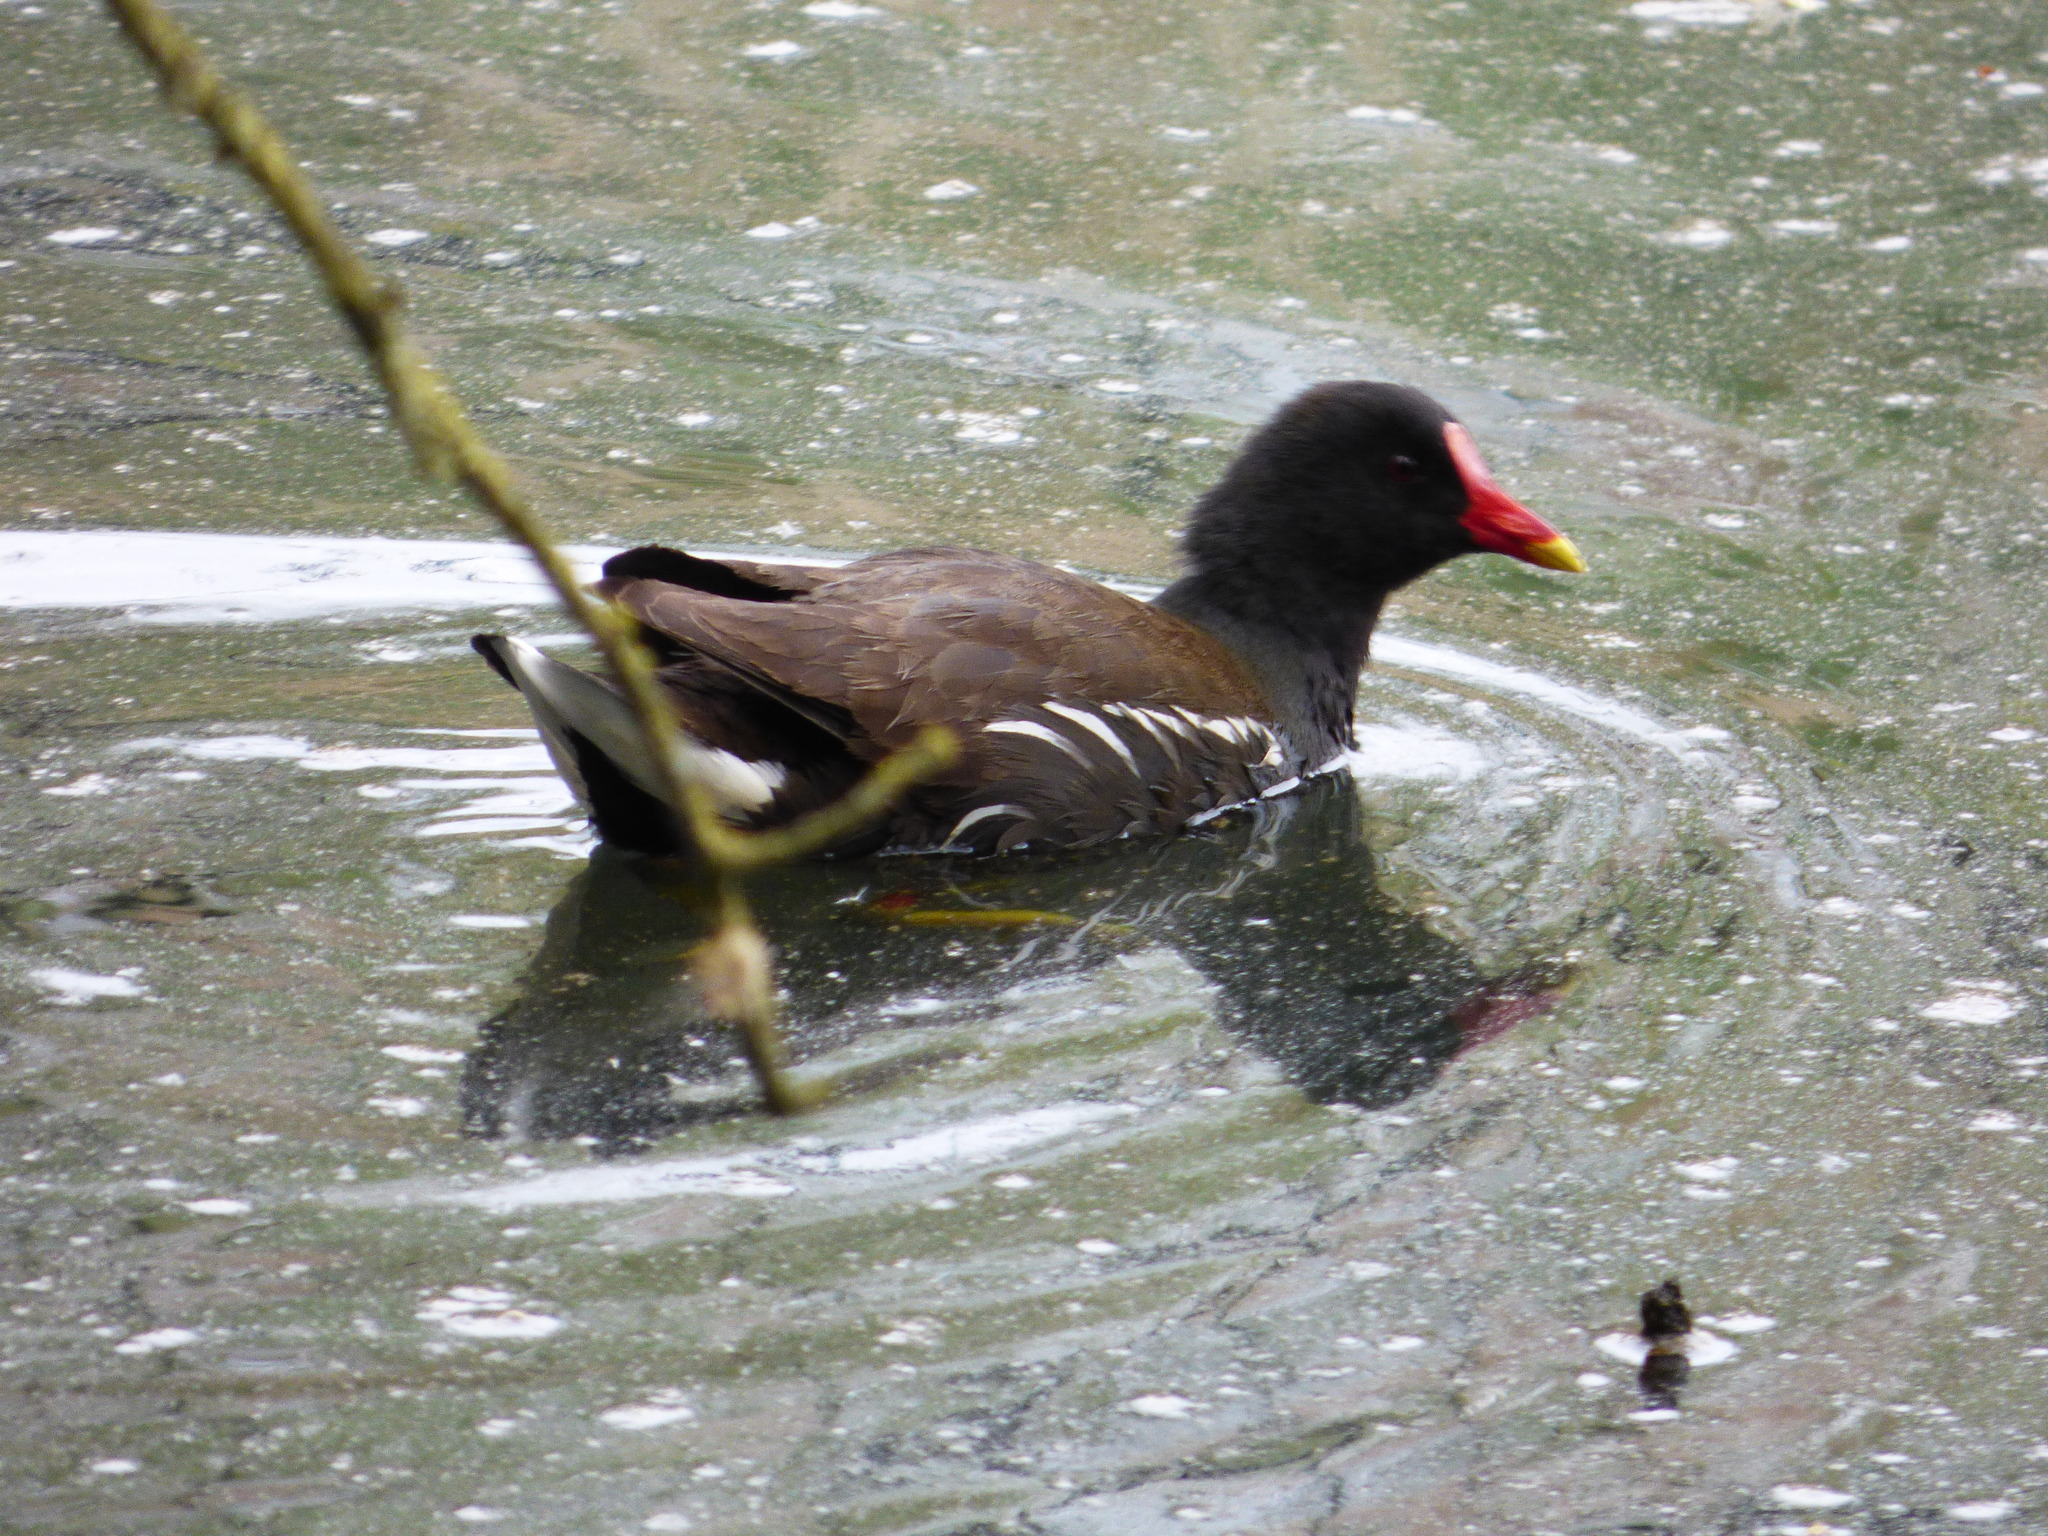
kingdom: Animalia
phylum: Chordata
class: Aves
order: Gruiformes
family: Rallidae
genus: Gallinula
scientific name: Gallinula chloropus
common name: Common moorhen
